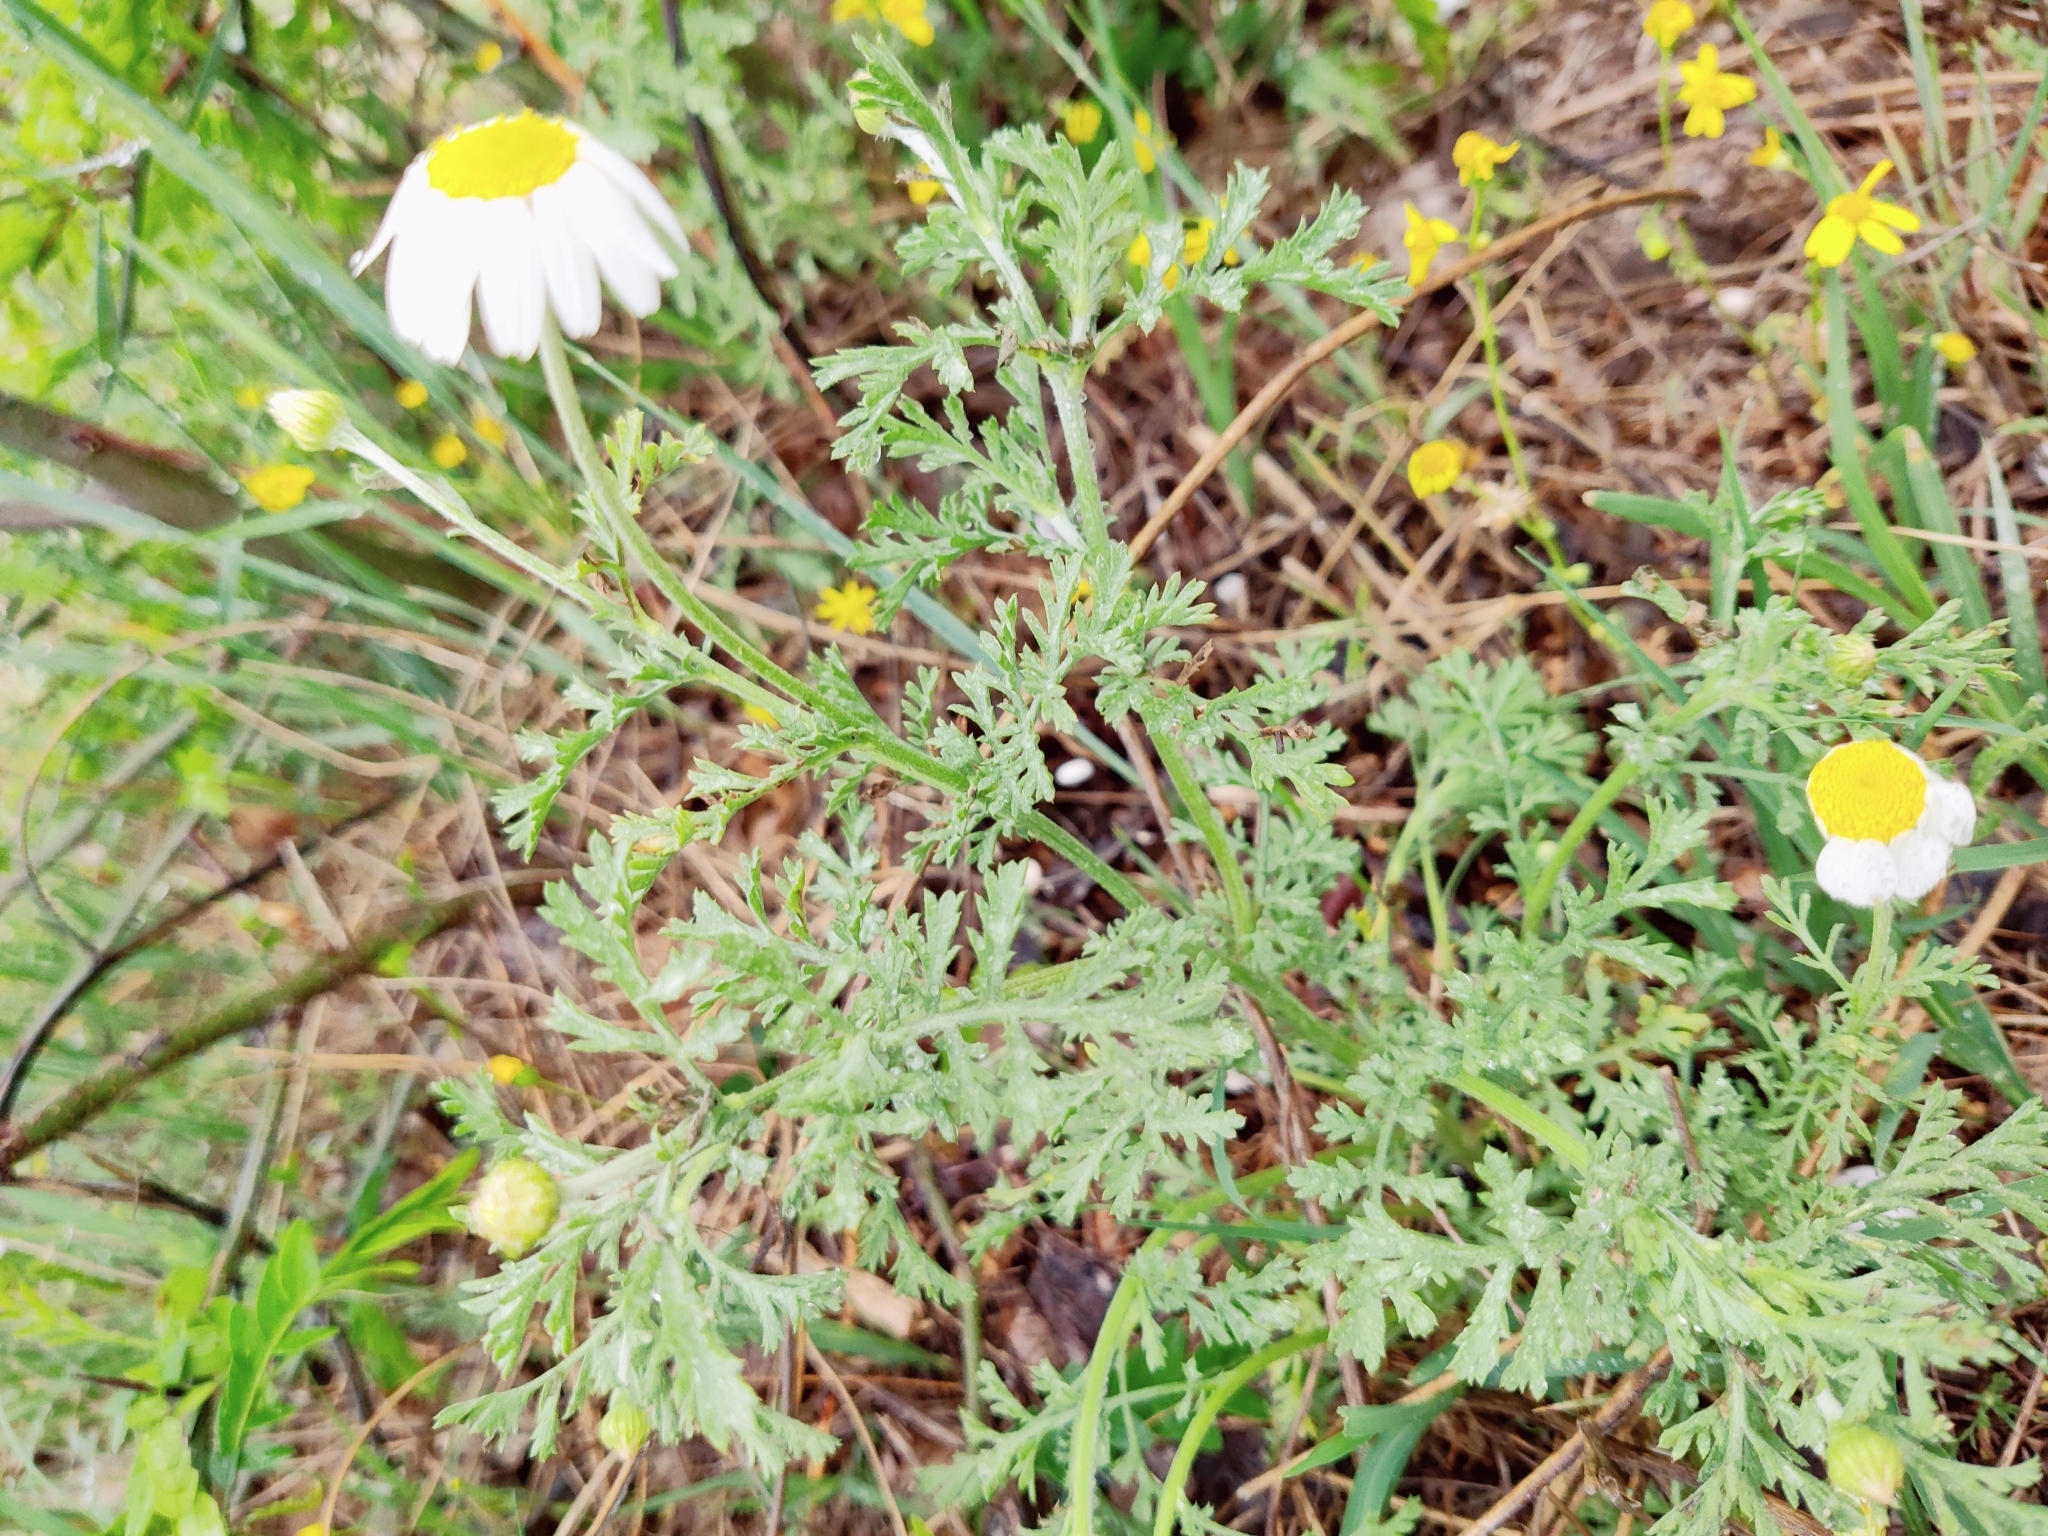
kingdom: Plantae
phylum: Tracheophyta
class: Magnoliopsida
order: Asterales
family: Asteraceae
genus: Cota
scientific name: Cota triumfetti
